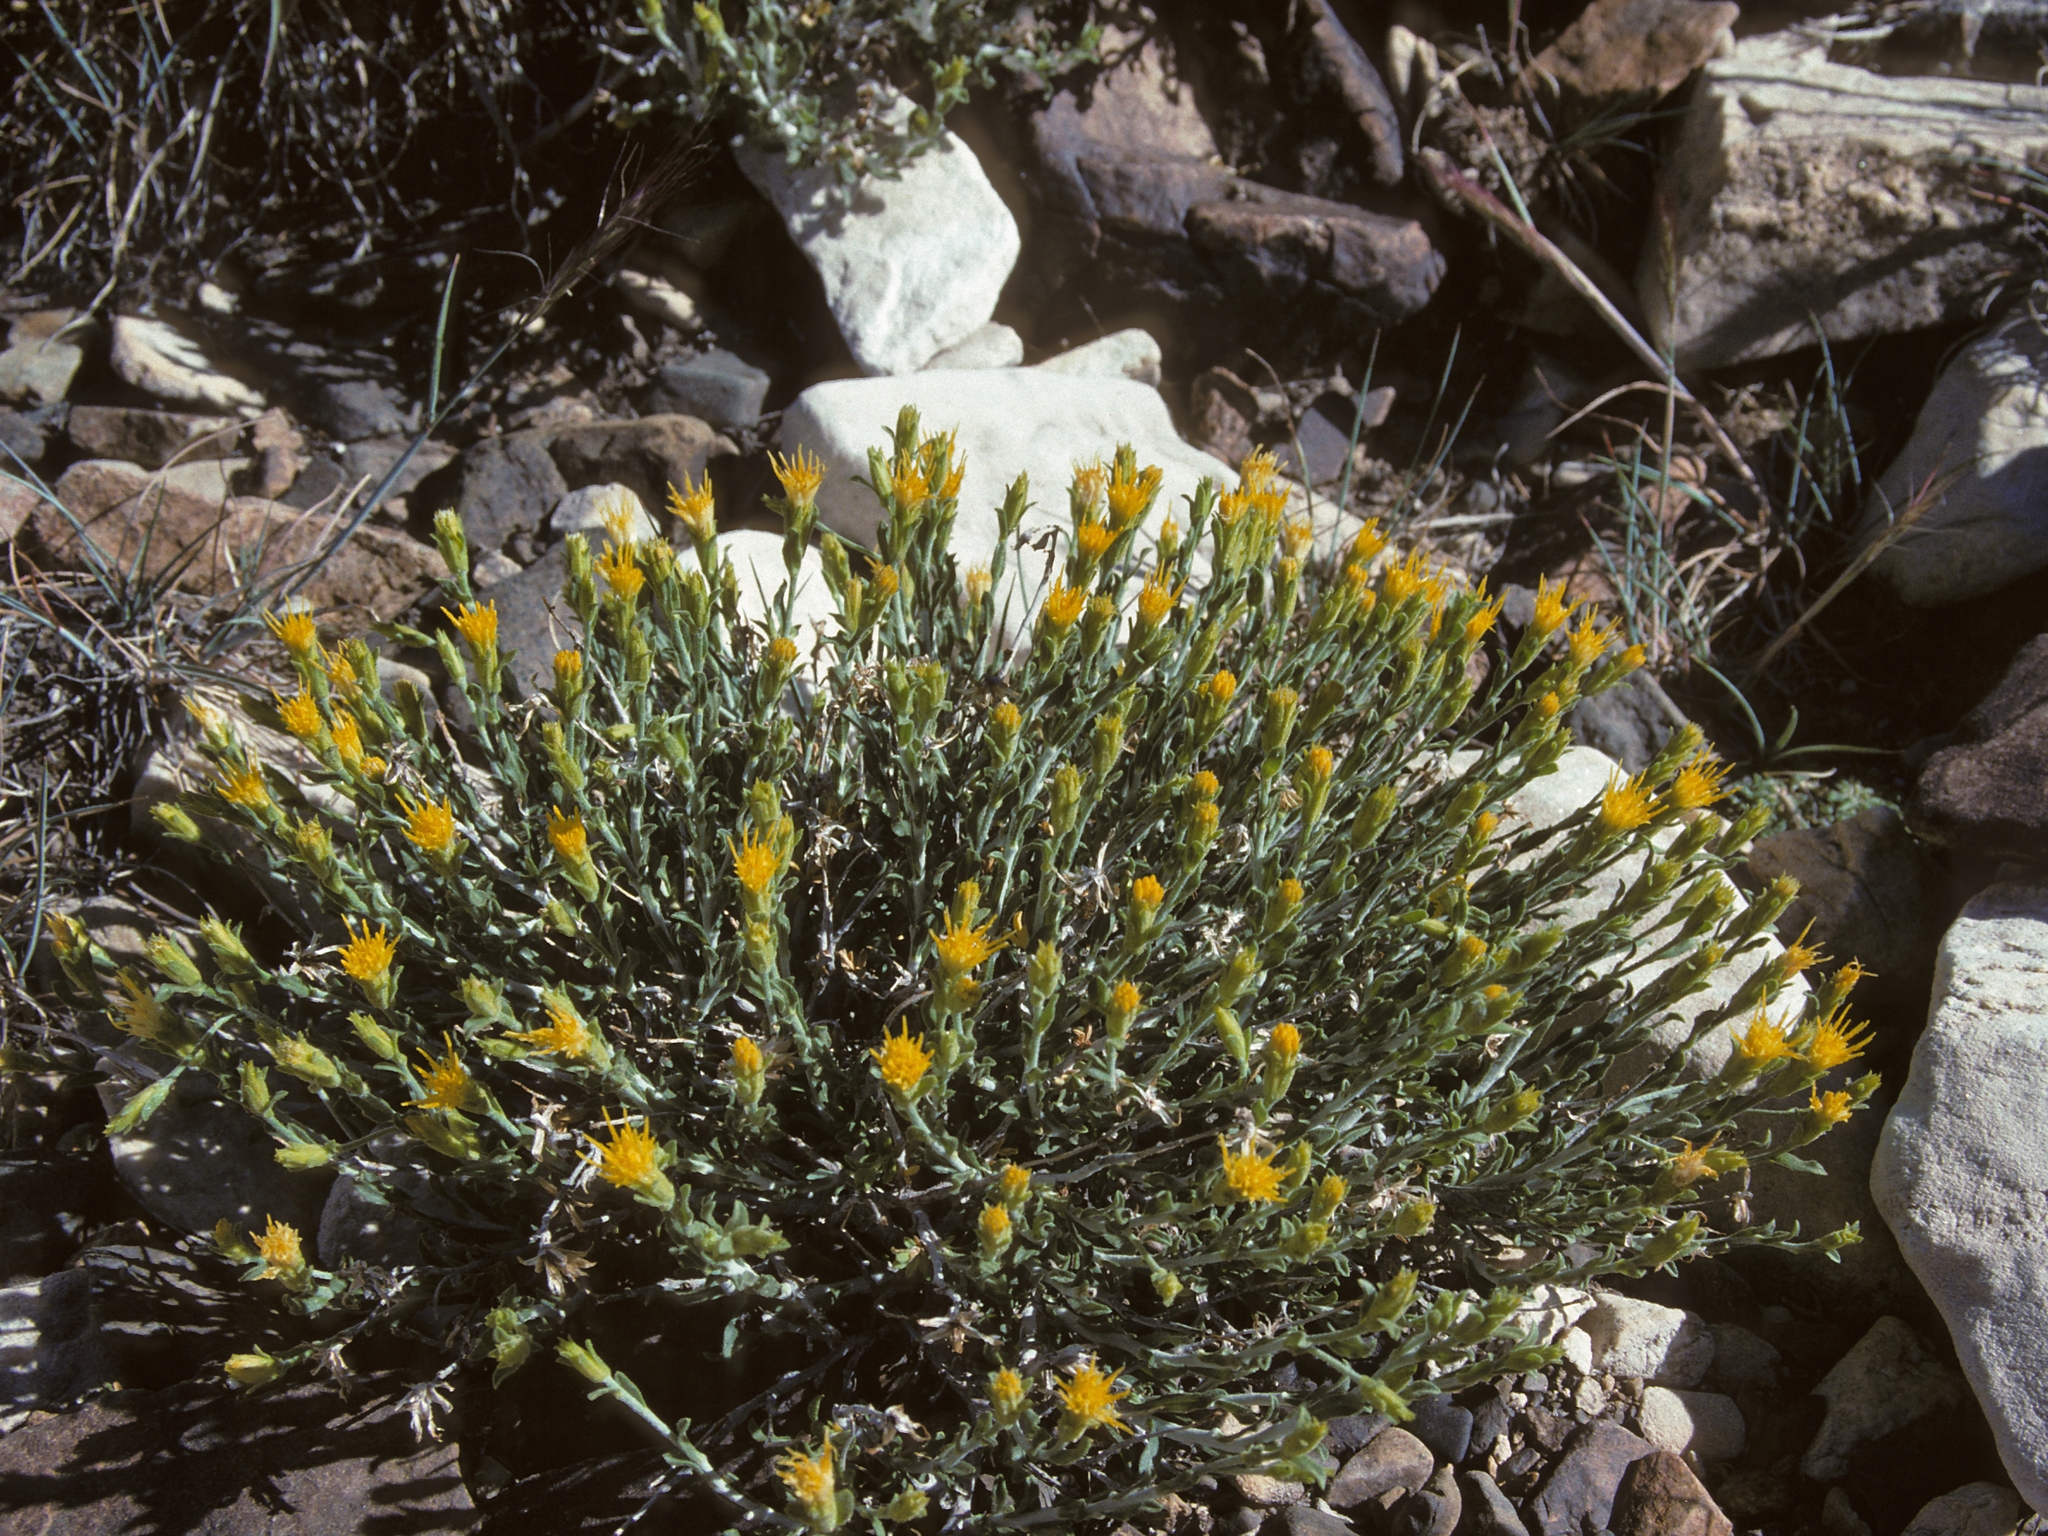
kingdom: Plantae
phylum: Tracheophyta
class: Magnoliopsida
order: Asterales
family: Asteraceae
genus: Ericameria
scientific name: Ericameria discoidea
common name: Sharp-scale goldenweed
